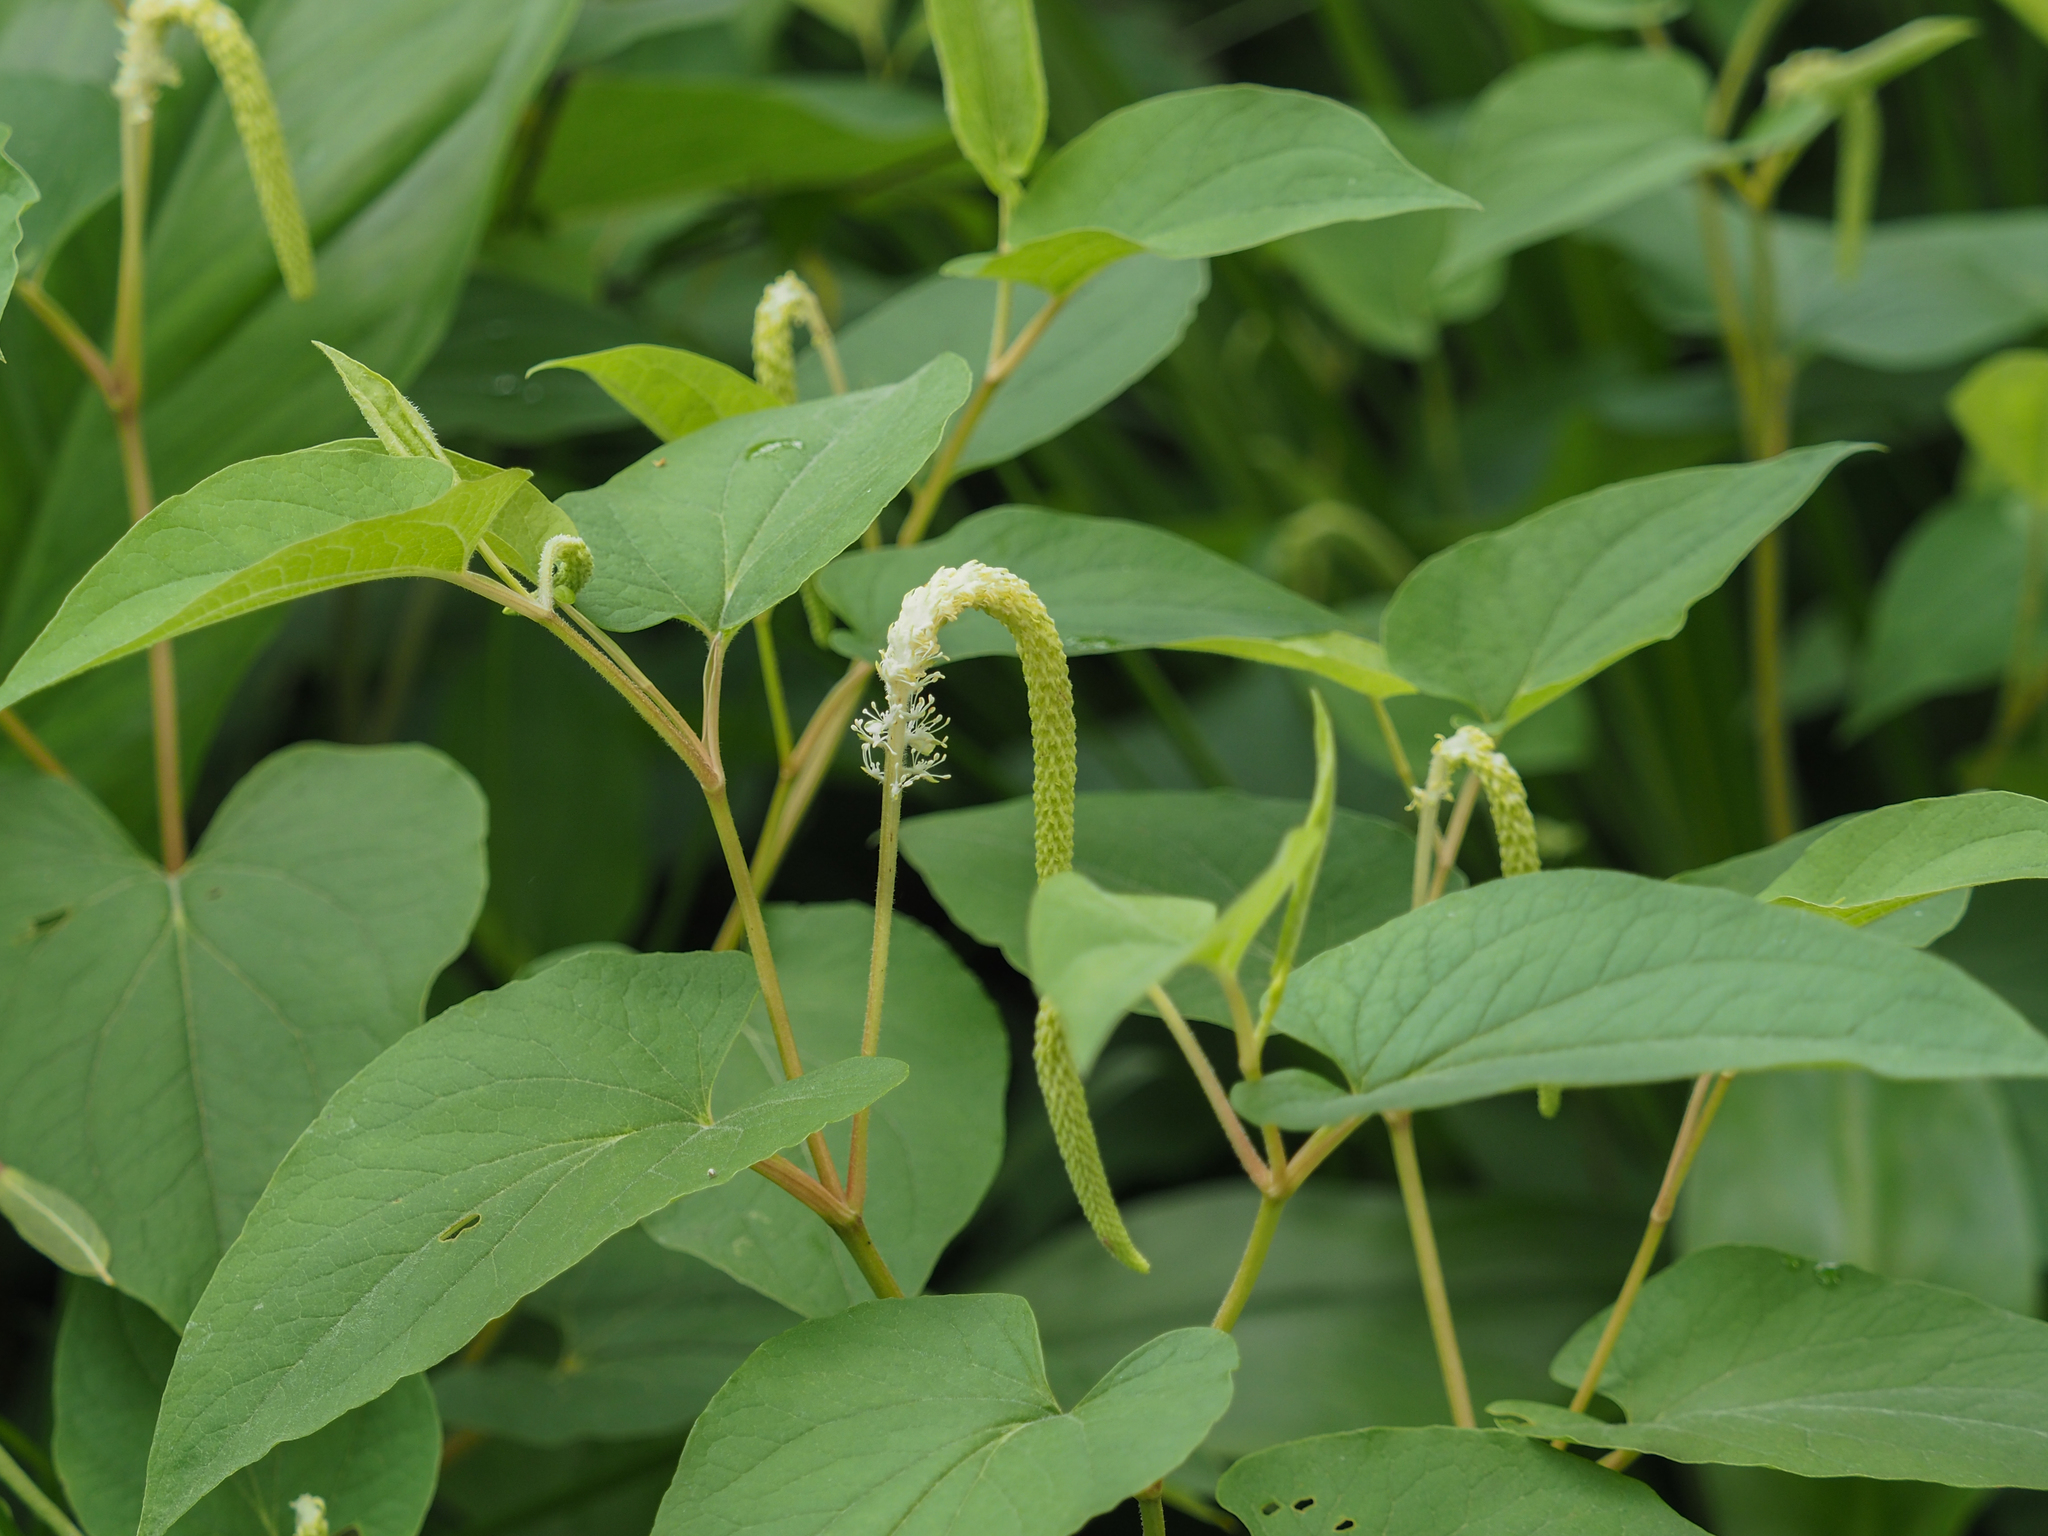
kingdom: Plantae
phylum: Tracheophyta
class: Magnoliopsida
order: Piperales
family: Saururaceae
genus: Saururus
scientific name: Saururus cernuus
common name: Lizard's-tail
